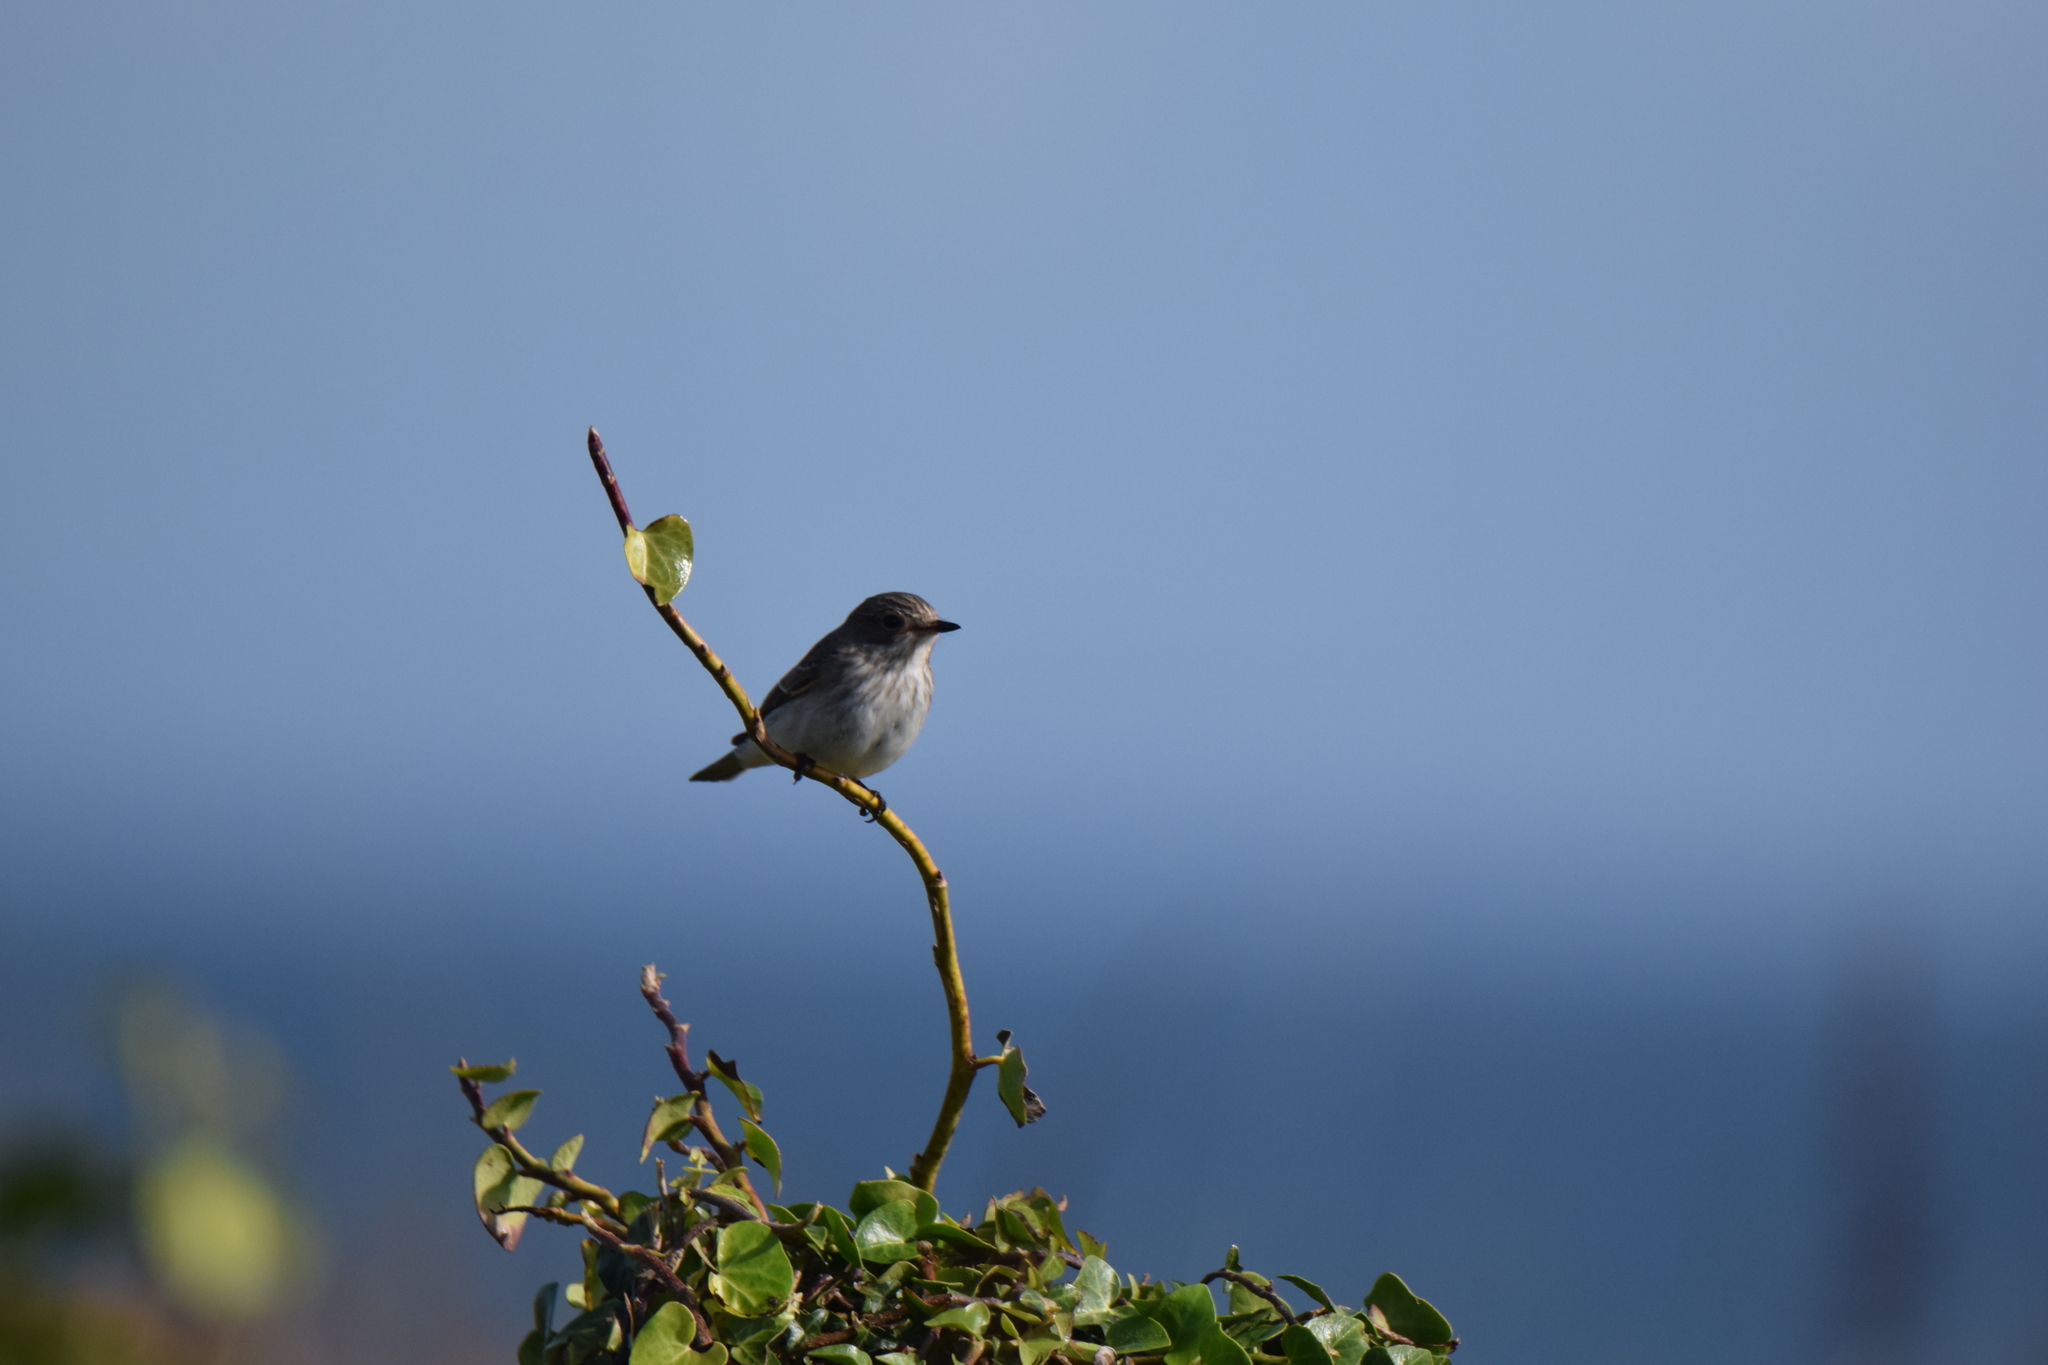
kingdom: Animalia
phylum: Chordata
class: Aves
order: Passeriformes
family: Muscicapidae
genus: Muscicapa
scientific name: Muscicapa striata
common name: Spotted flycatcher
